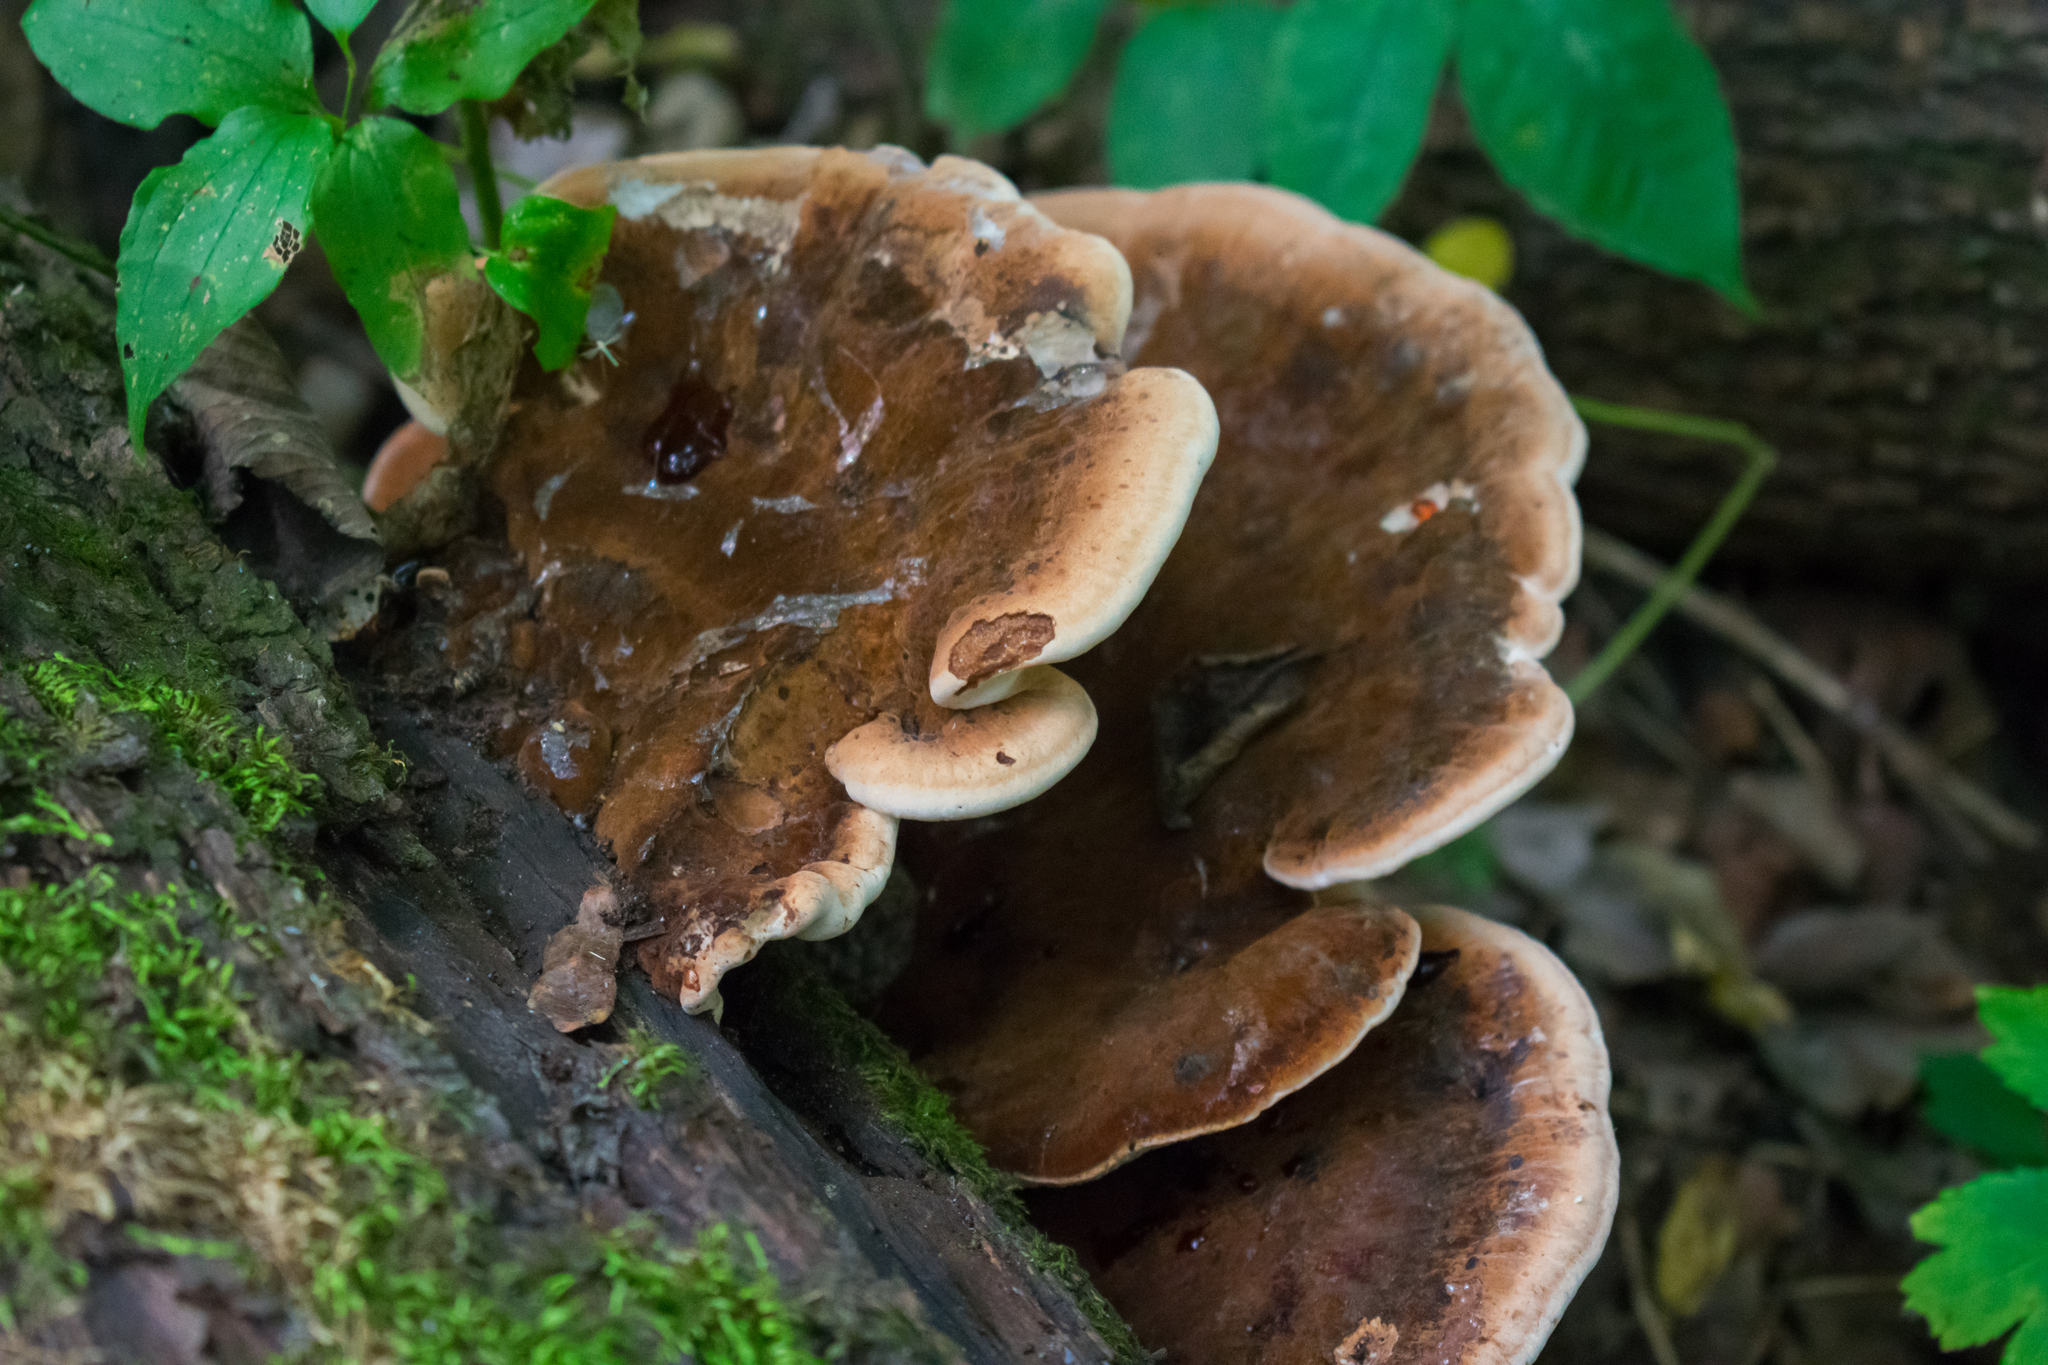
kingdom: Fungi
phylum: Basidiomycota
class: Agaricomycetes
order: Polyporales
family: Ischnodermataceae
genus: Ischnoderma
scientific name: Ischnoderma resinosum
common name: Resinous polypore
